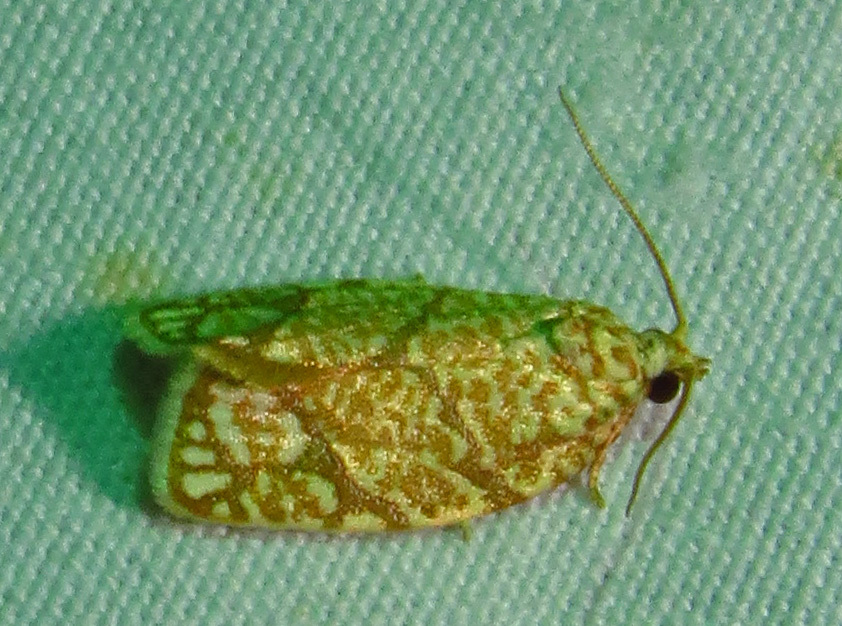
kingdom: Animalia
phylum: Arthropoda
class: Insecta
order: Lepidoptera
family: Tortricidae
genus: Argyrotaenia
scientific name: Argyrotaenia quercifoliana
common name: Yellow-winged oak leafroller moth
